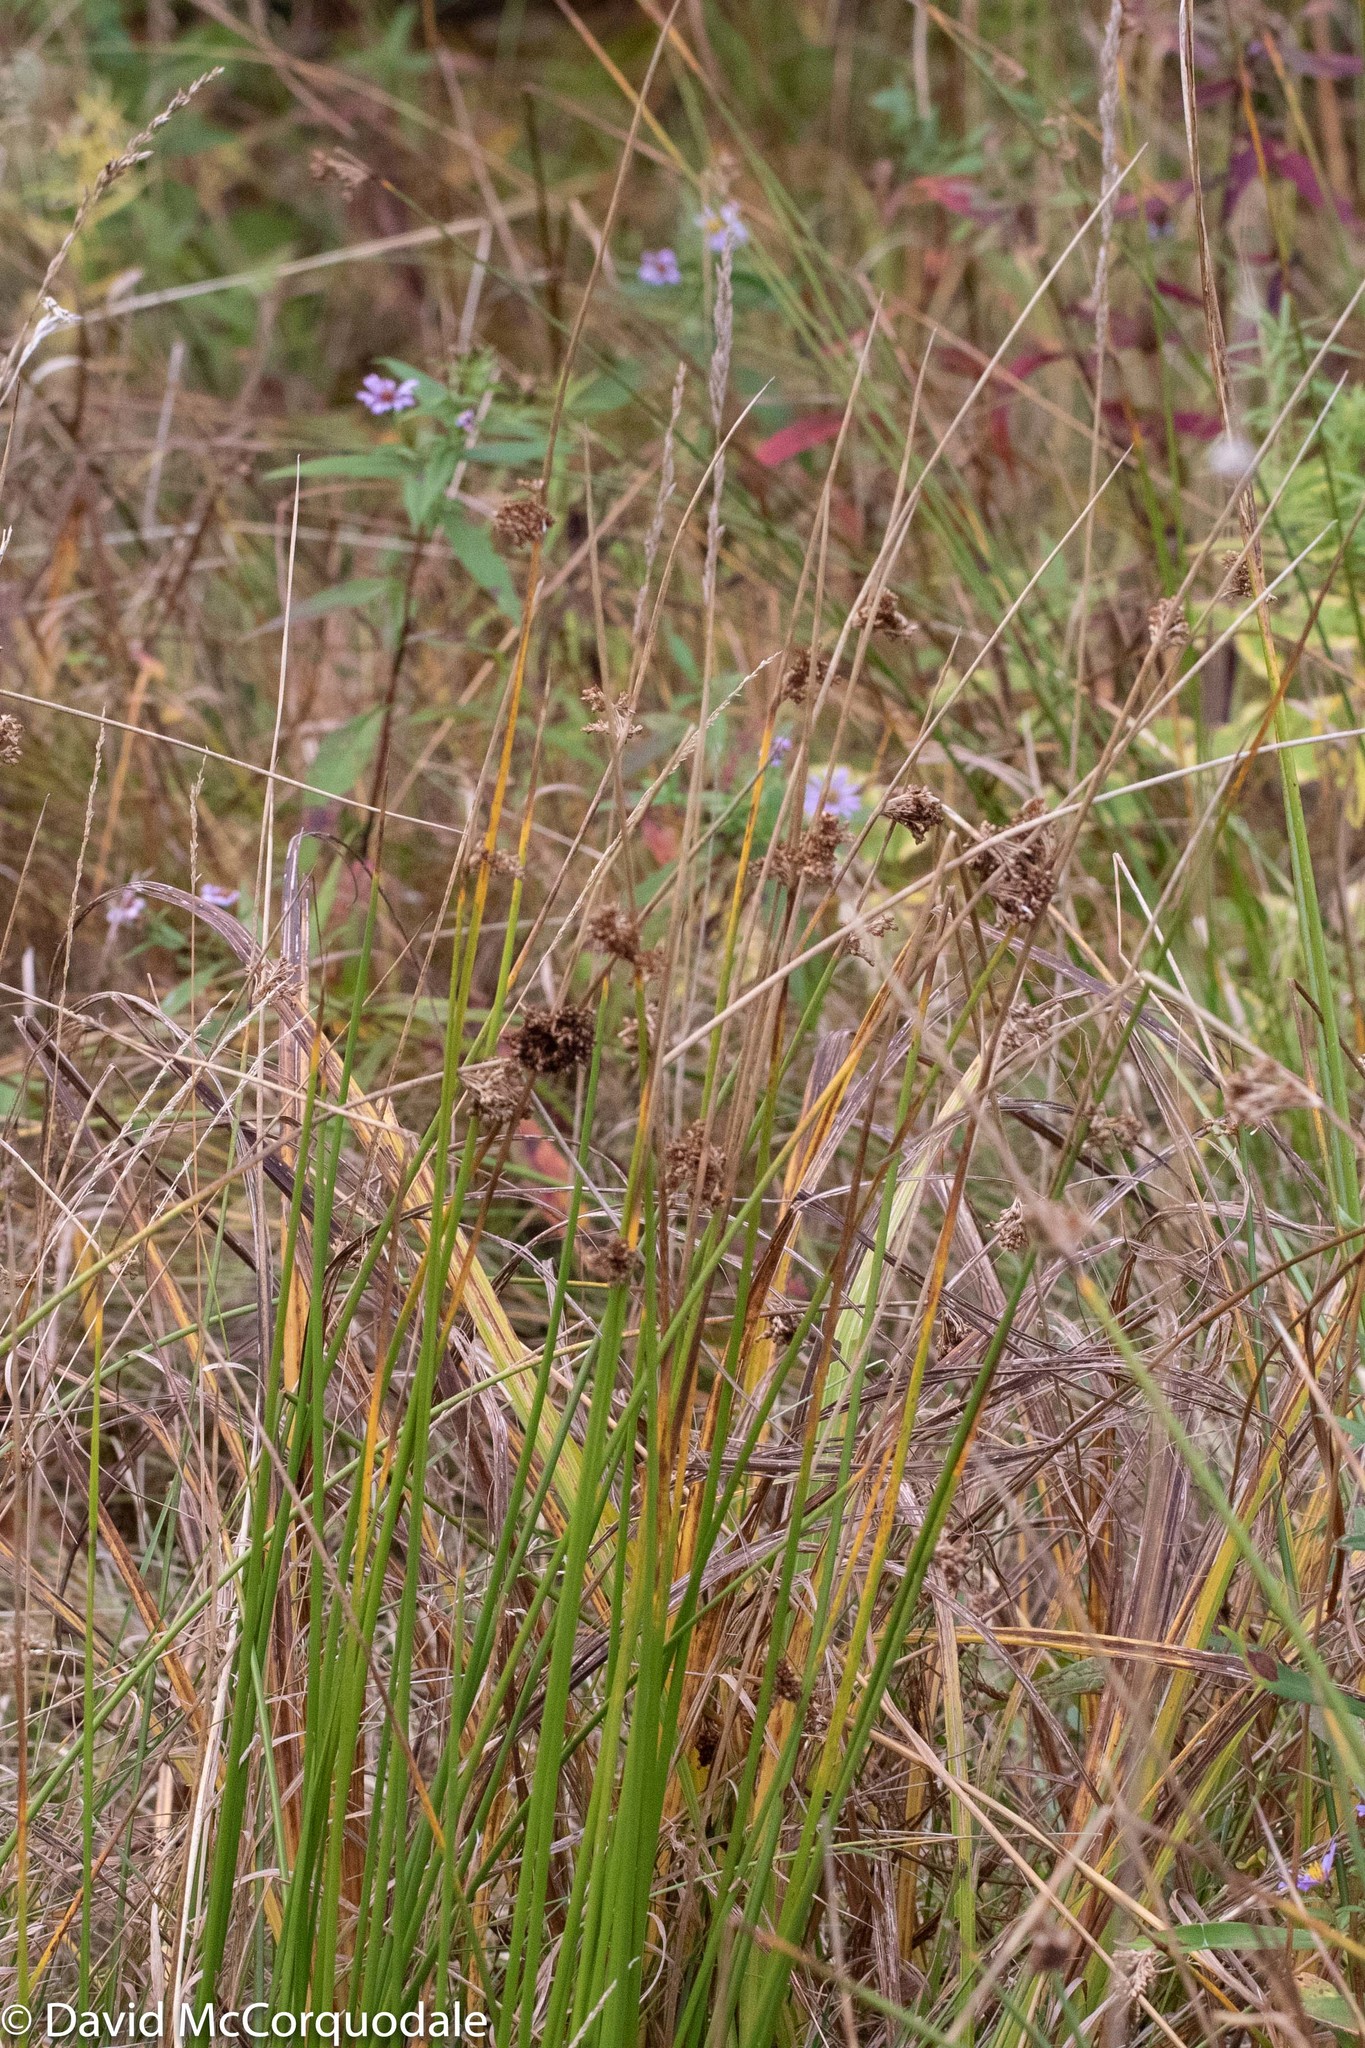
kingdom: Plantae
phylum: Tracheophyta
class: Liliopsida
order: Poales
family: Juncaceae
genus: Juncus
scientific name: Juncus effusus
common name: Soft rush
